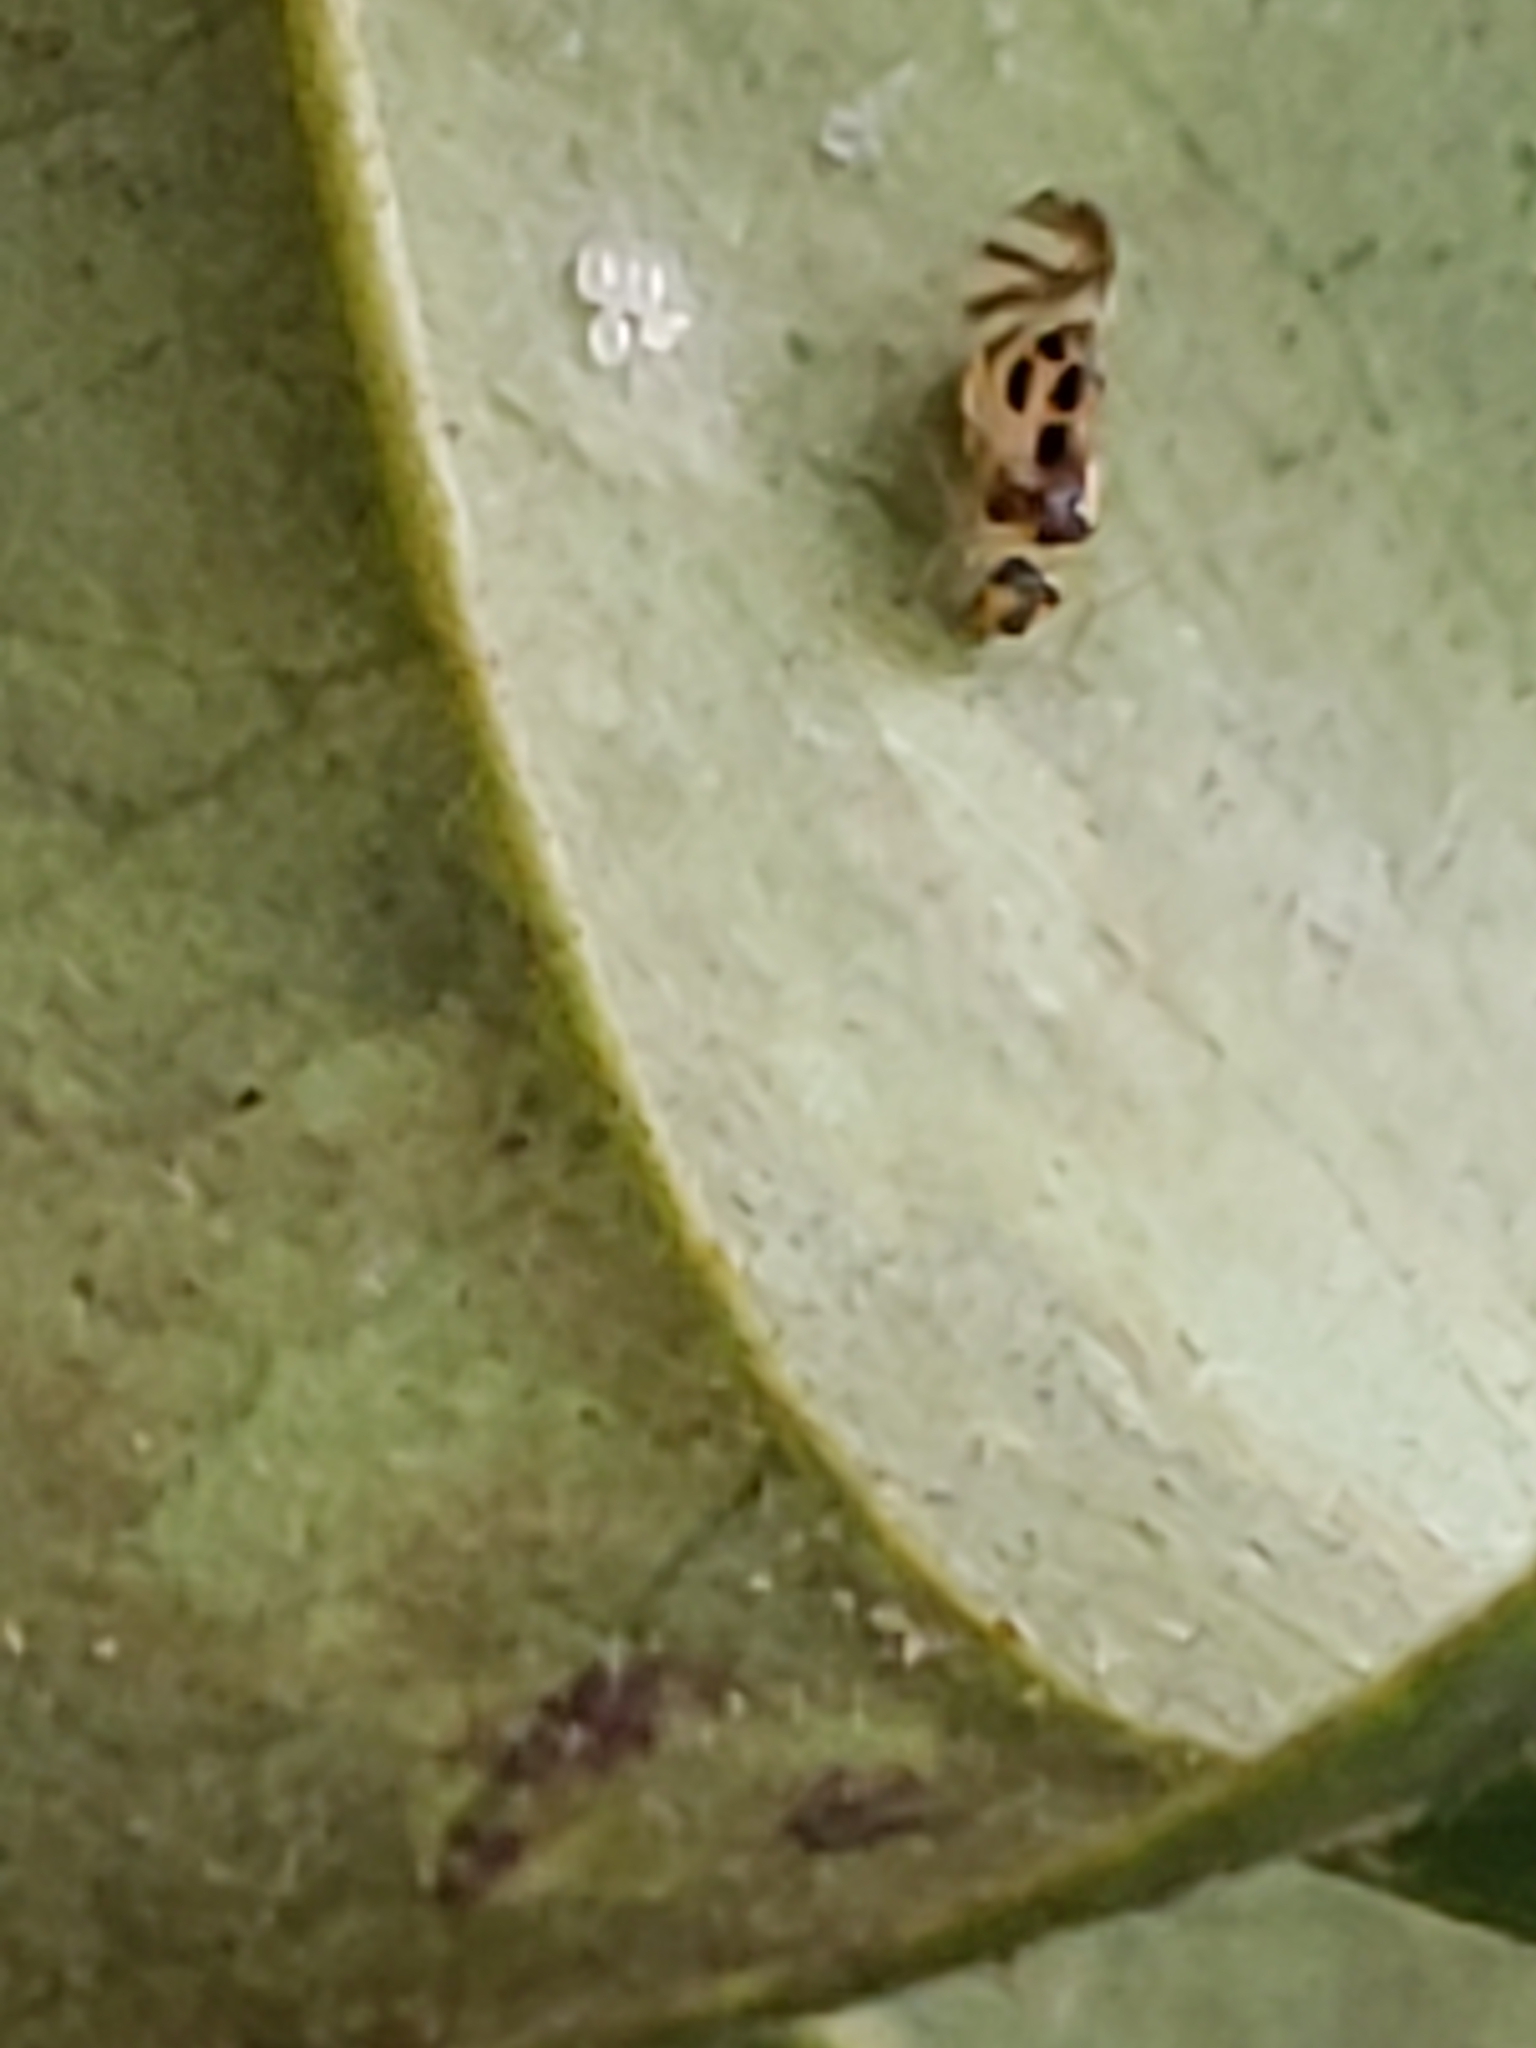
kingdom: Animalia
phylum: Arthropoda
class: Insecta
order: Psocodea
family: Stenopsocidae
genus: Graphopsocus
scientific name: Graphopsocus cruciatus
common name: Lizard bark louse
